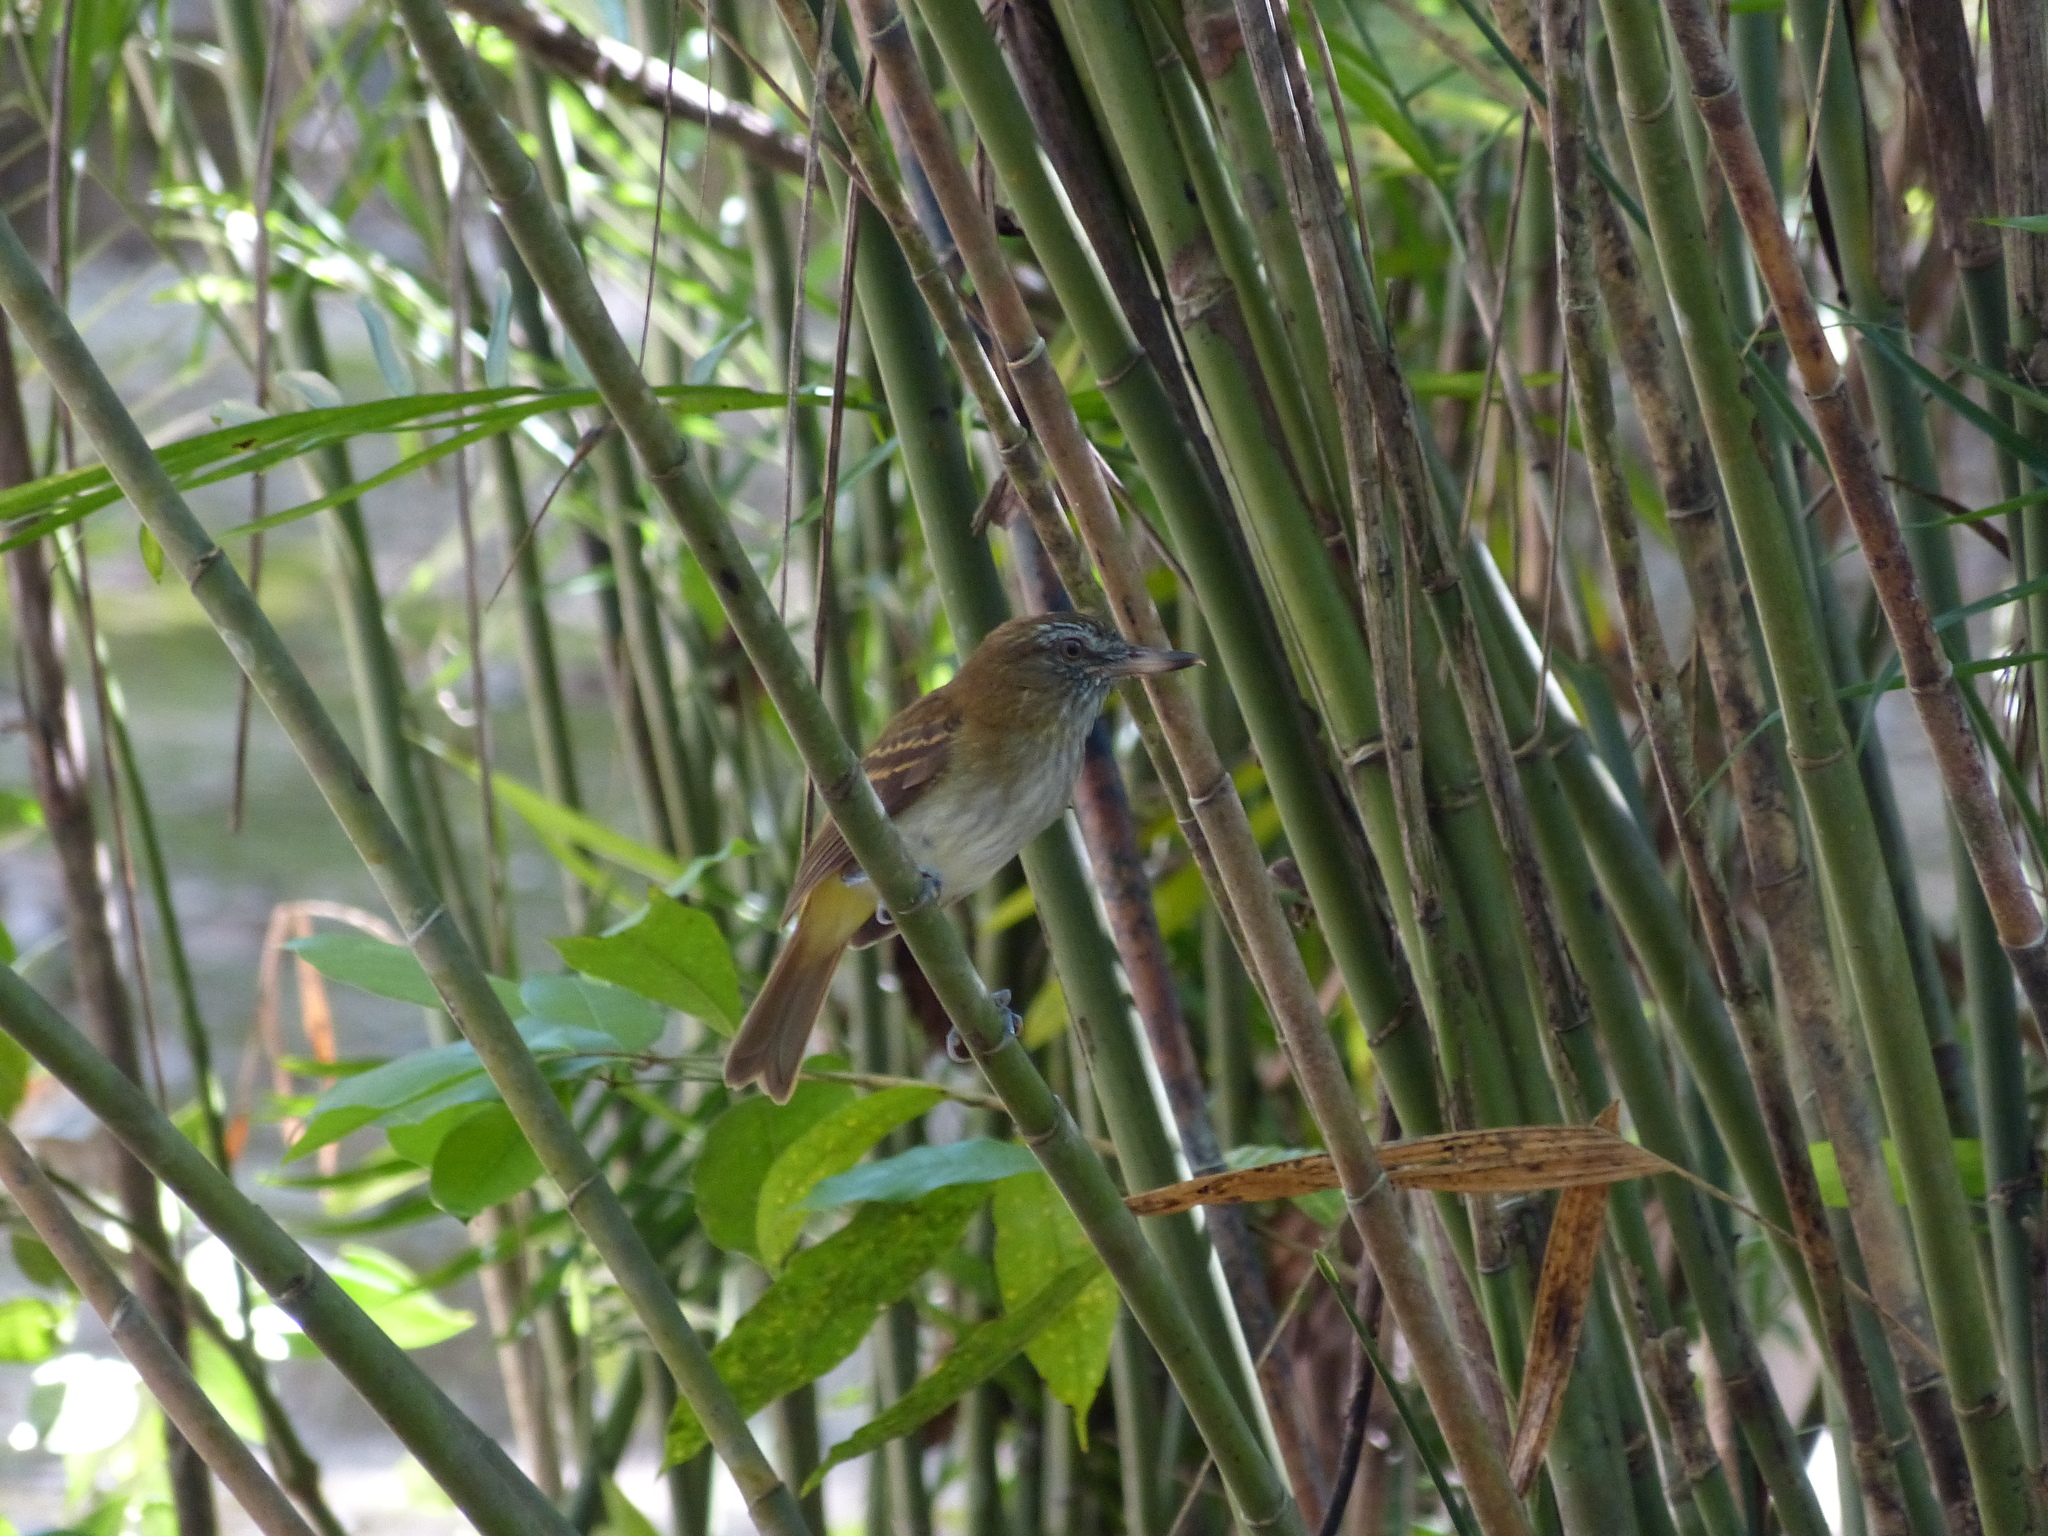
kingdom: Animalia
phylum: Chordata
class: Aves
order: Passeriformes
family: Tyrannidae
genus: Attila
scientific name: Attila spadiceus
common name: Bright-rumped attila
